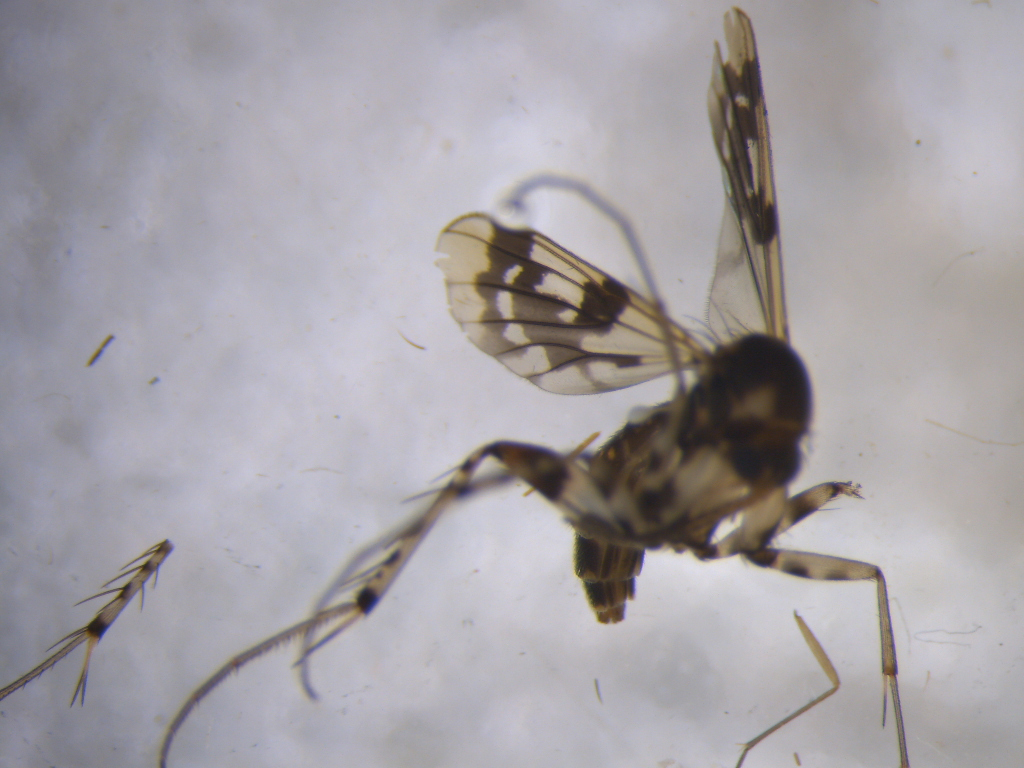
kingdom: Animalia
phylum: Arthropoda
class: Insecta
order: Diptera
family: Mycetophilidae
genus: Mycetophila
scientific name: Mycetophila ornatissima
